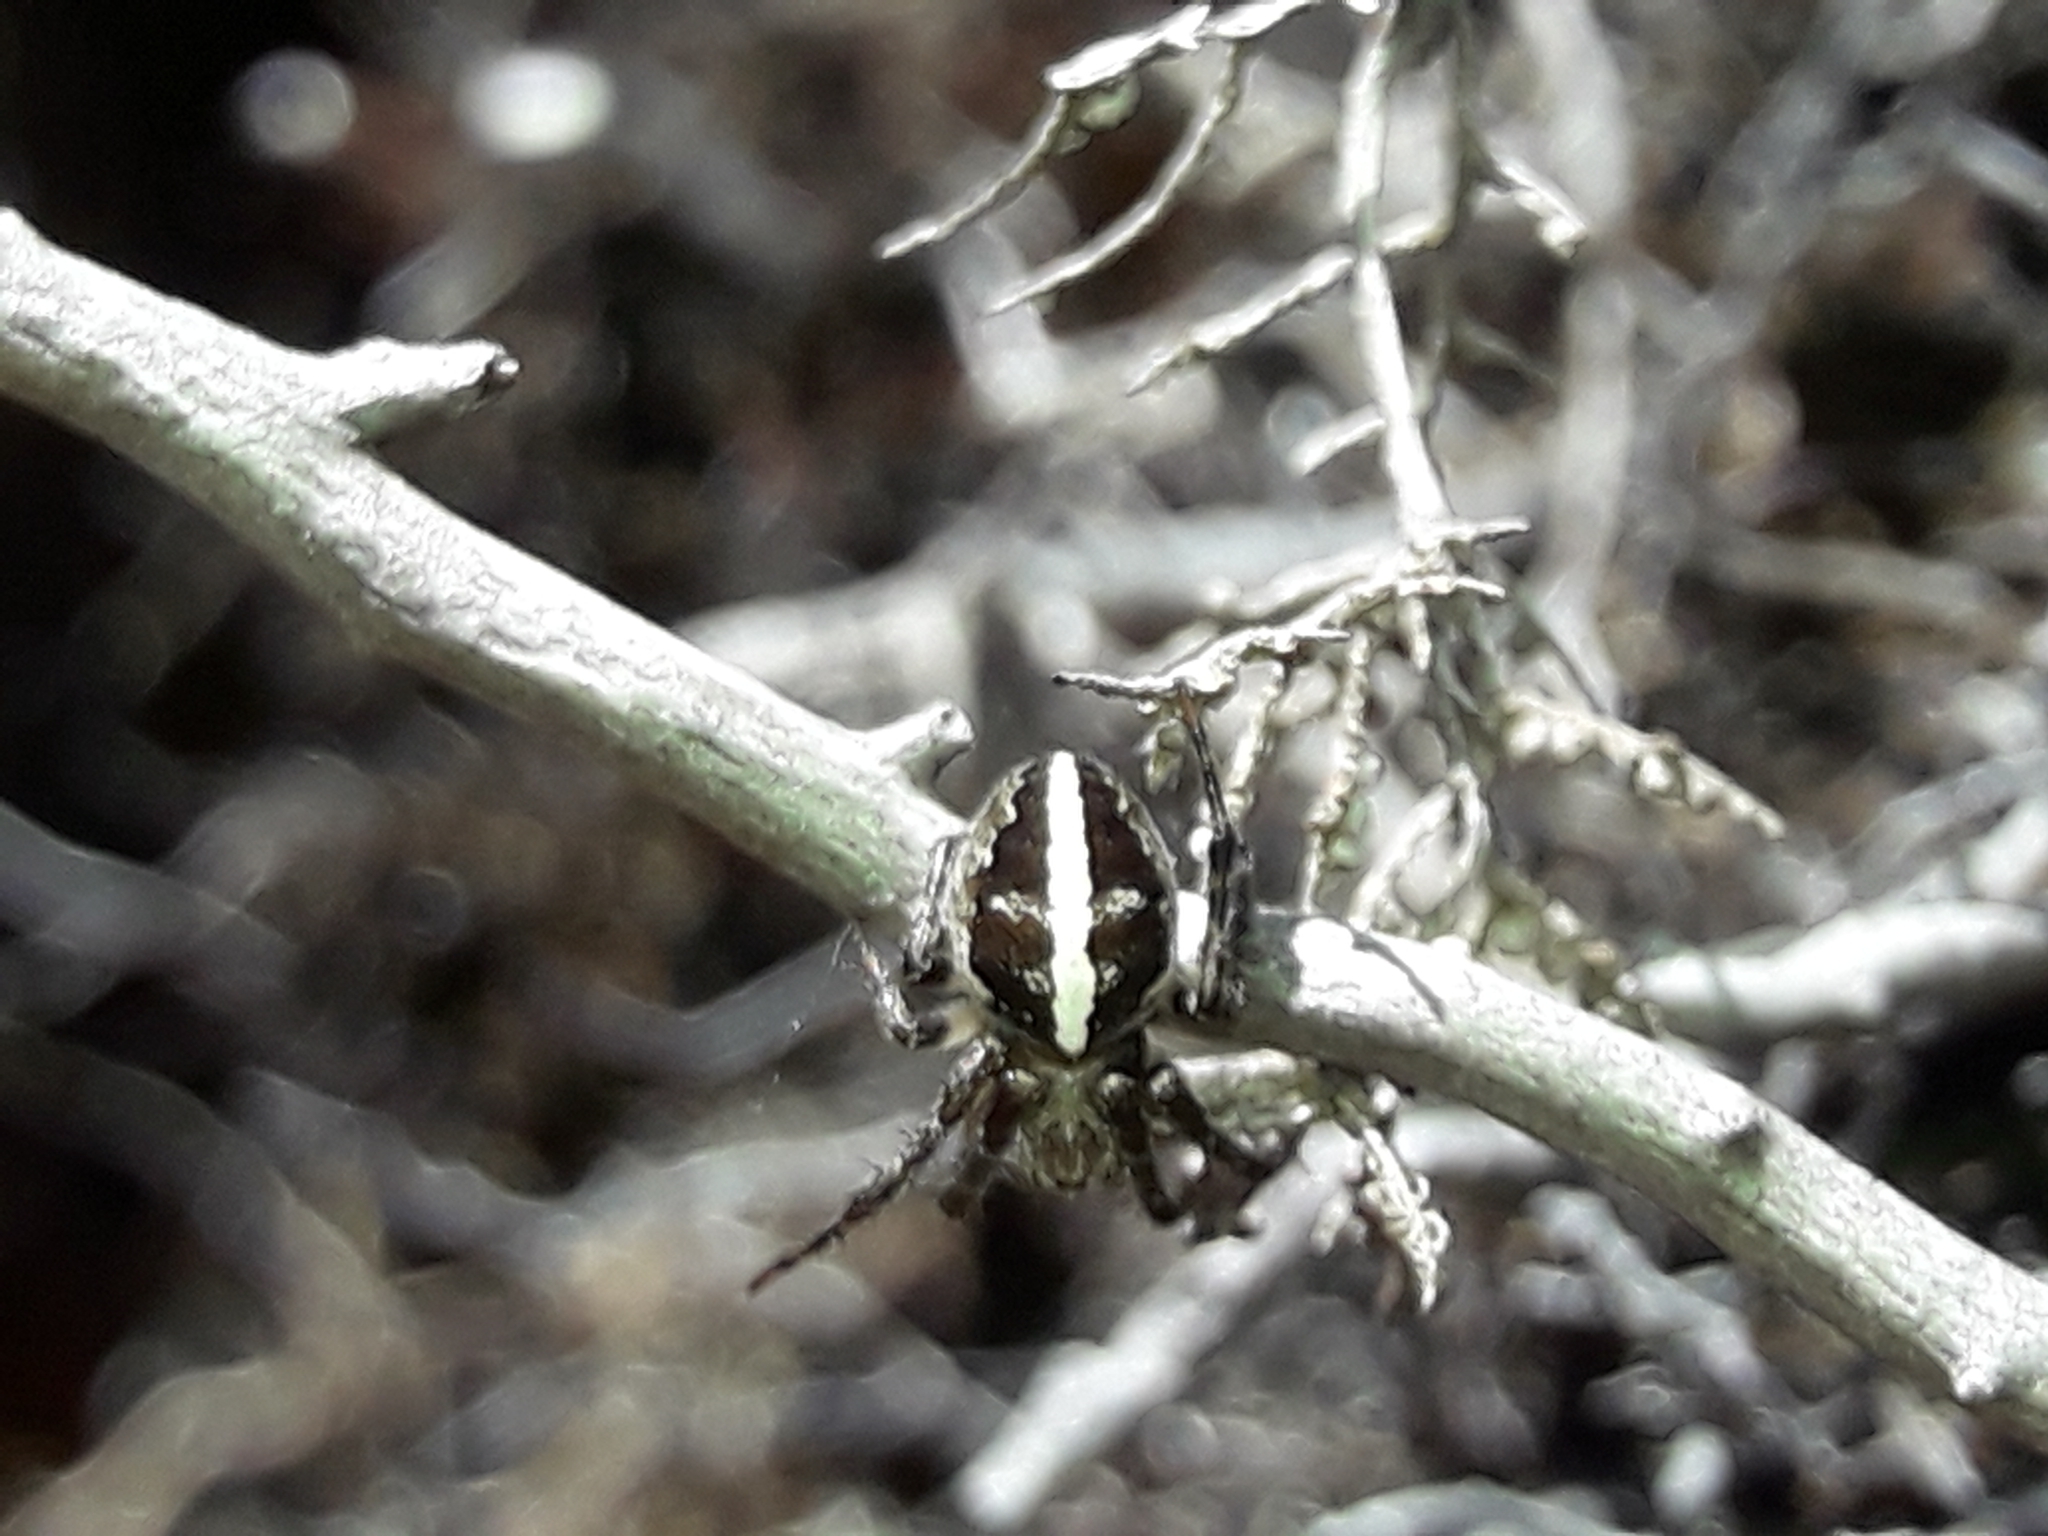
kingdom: Animalia
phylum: Arthropoda
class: Arachnida
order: Araneae
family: Araneidae
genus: Colaranea
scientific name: Colaranea verutum
